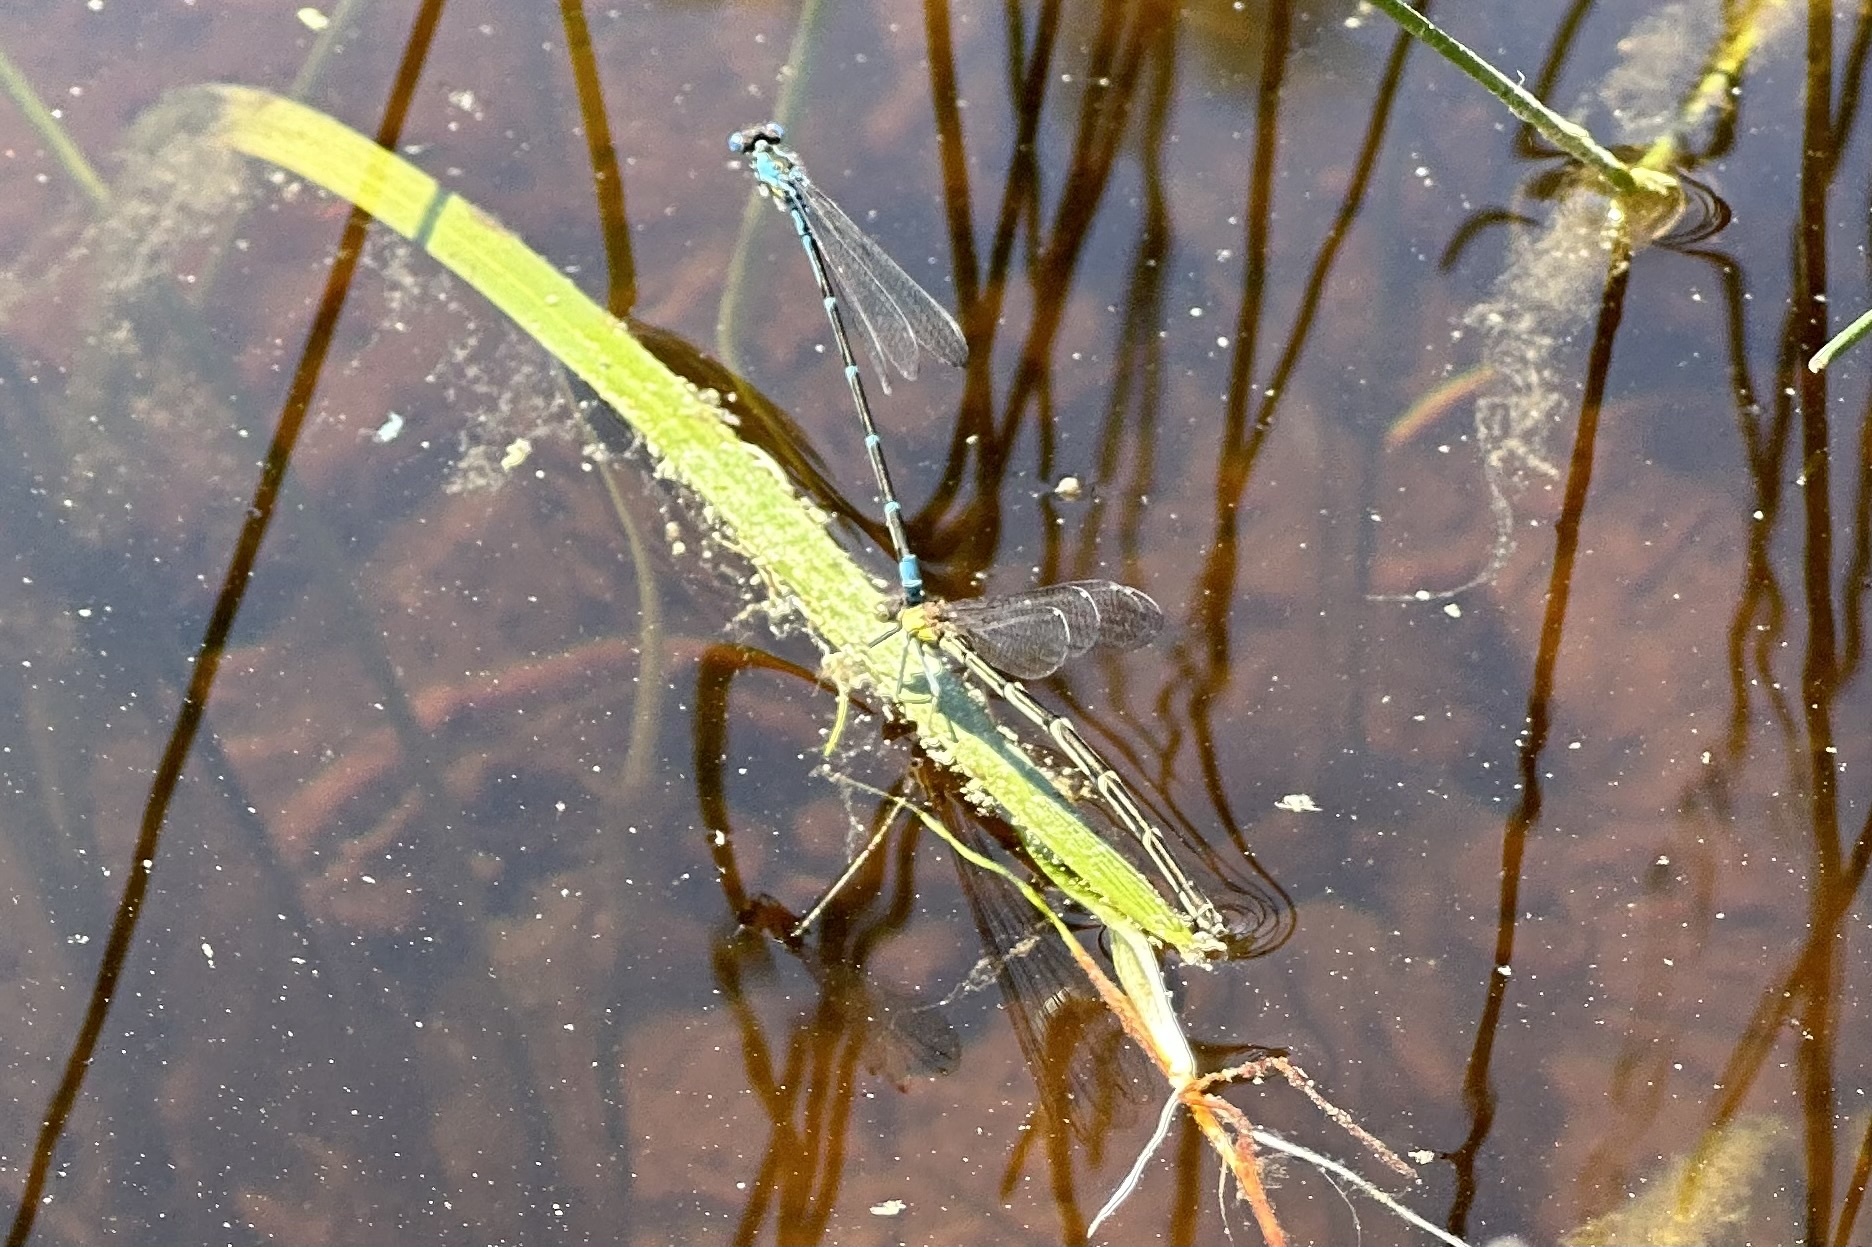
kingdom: Animalia
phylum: Arthropoda
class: Insecta
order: Odonata
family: Coenagrionidae
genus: Chromagrion
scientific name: Chromagrion conditum
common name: Aurora damsel
